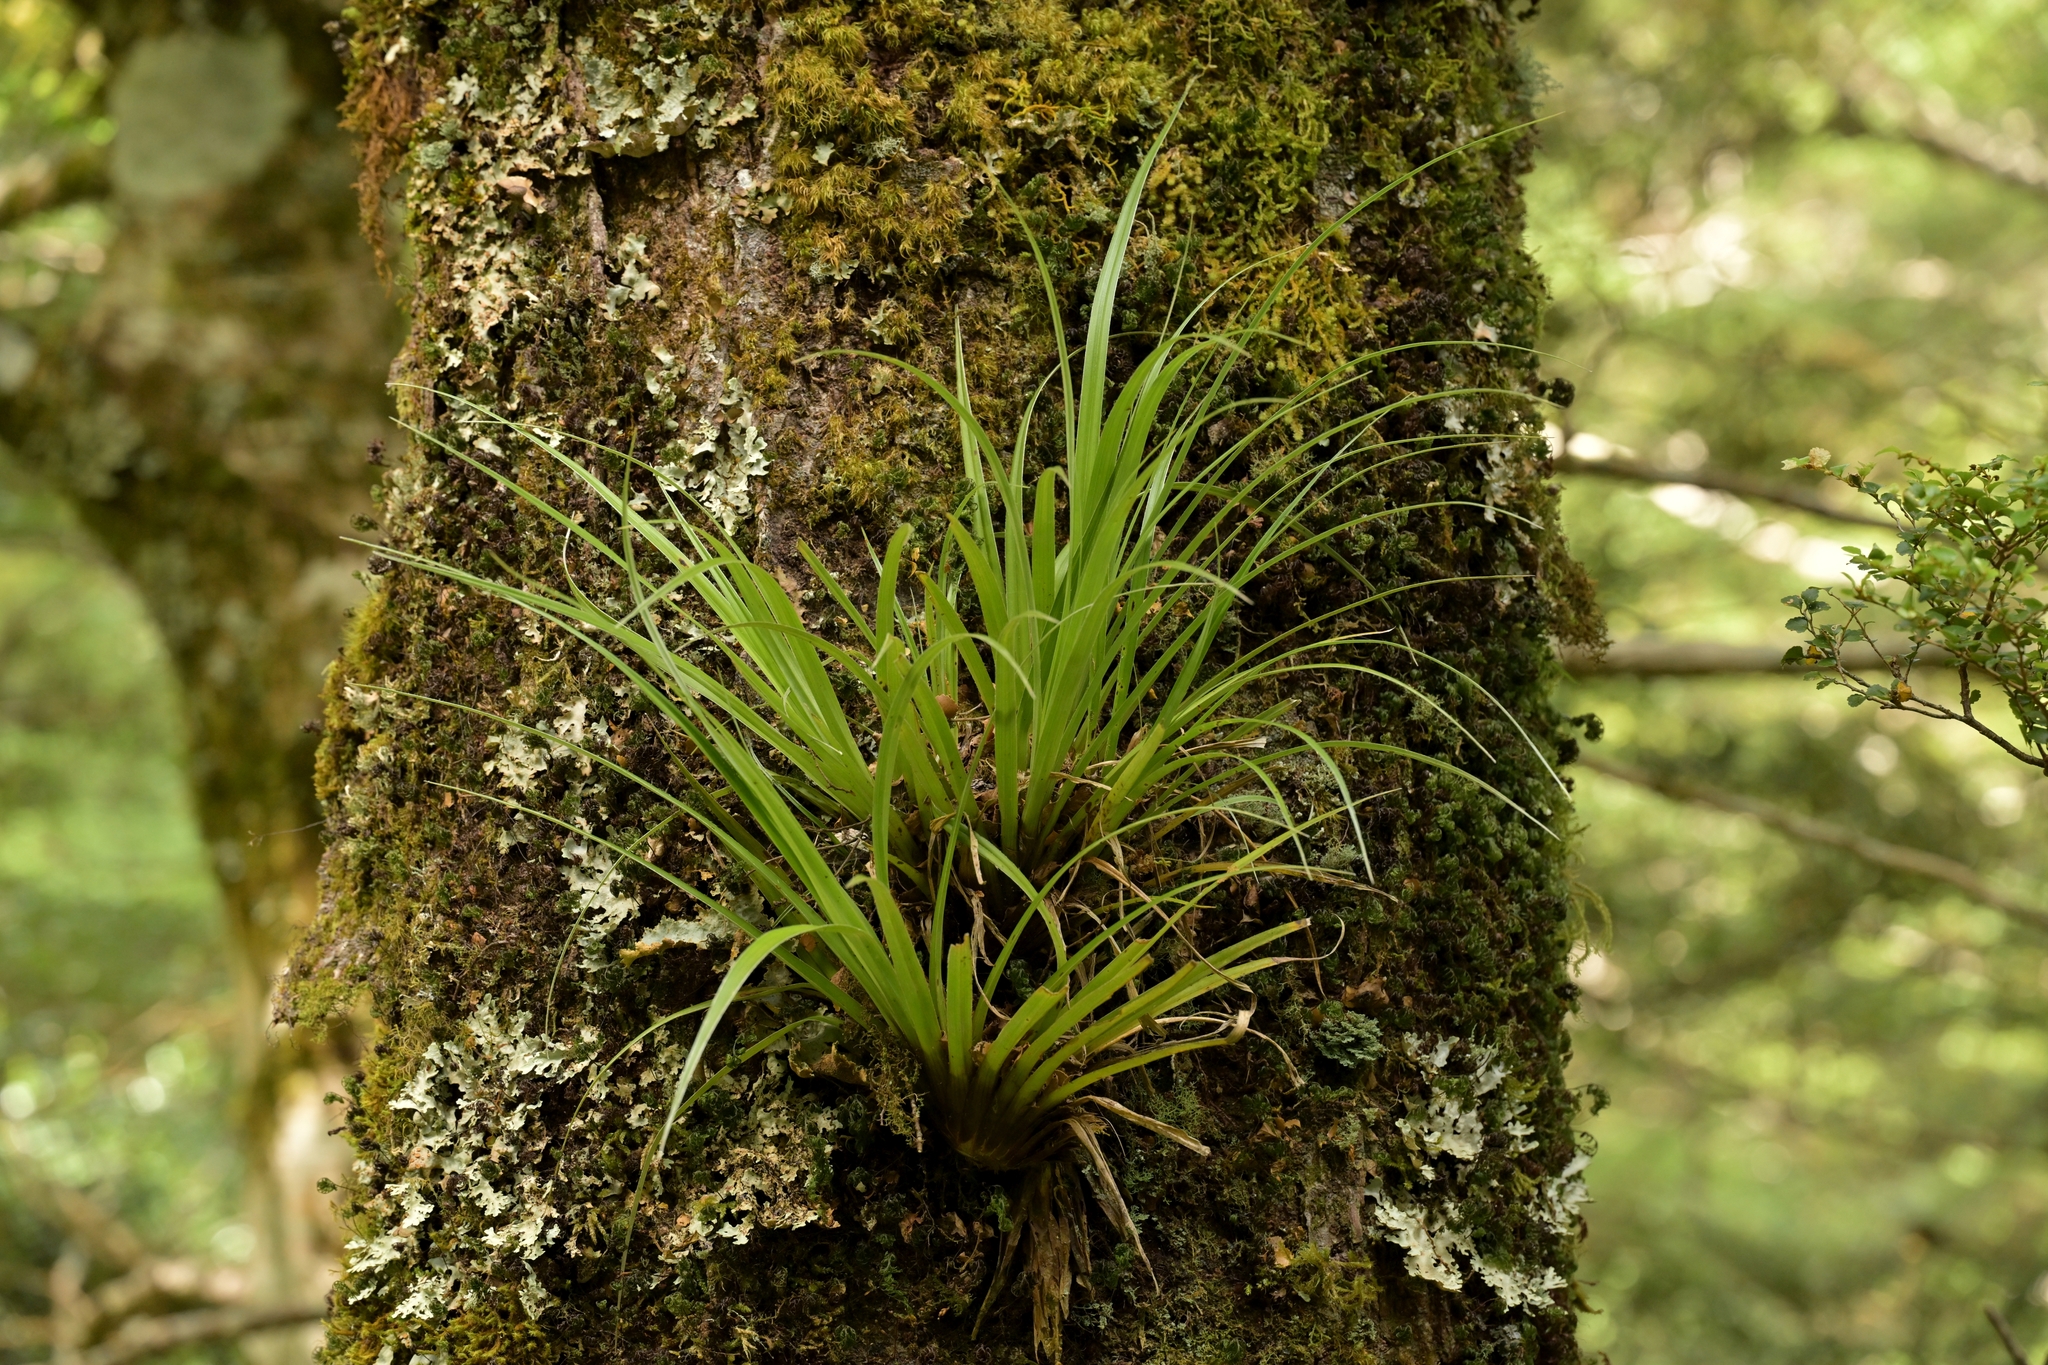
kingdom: Plantae
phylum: Tracheophyta
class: Liliopsida
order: Asparagales
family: Asteliaceae
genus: Astelia
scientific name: Astelia microsperma
